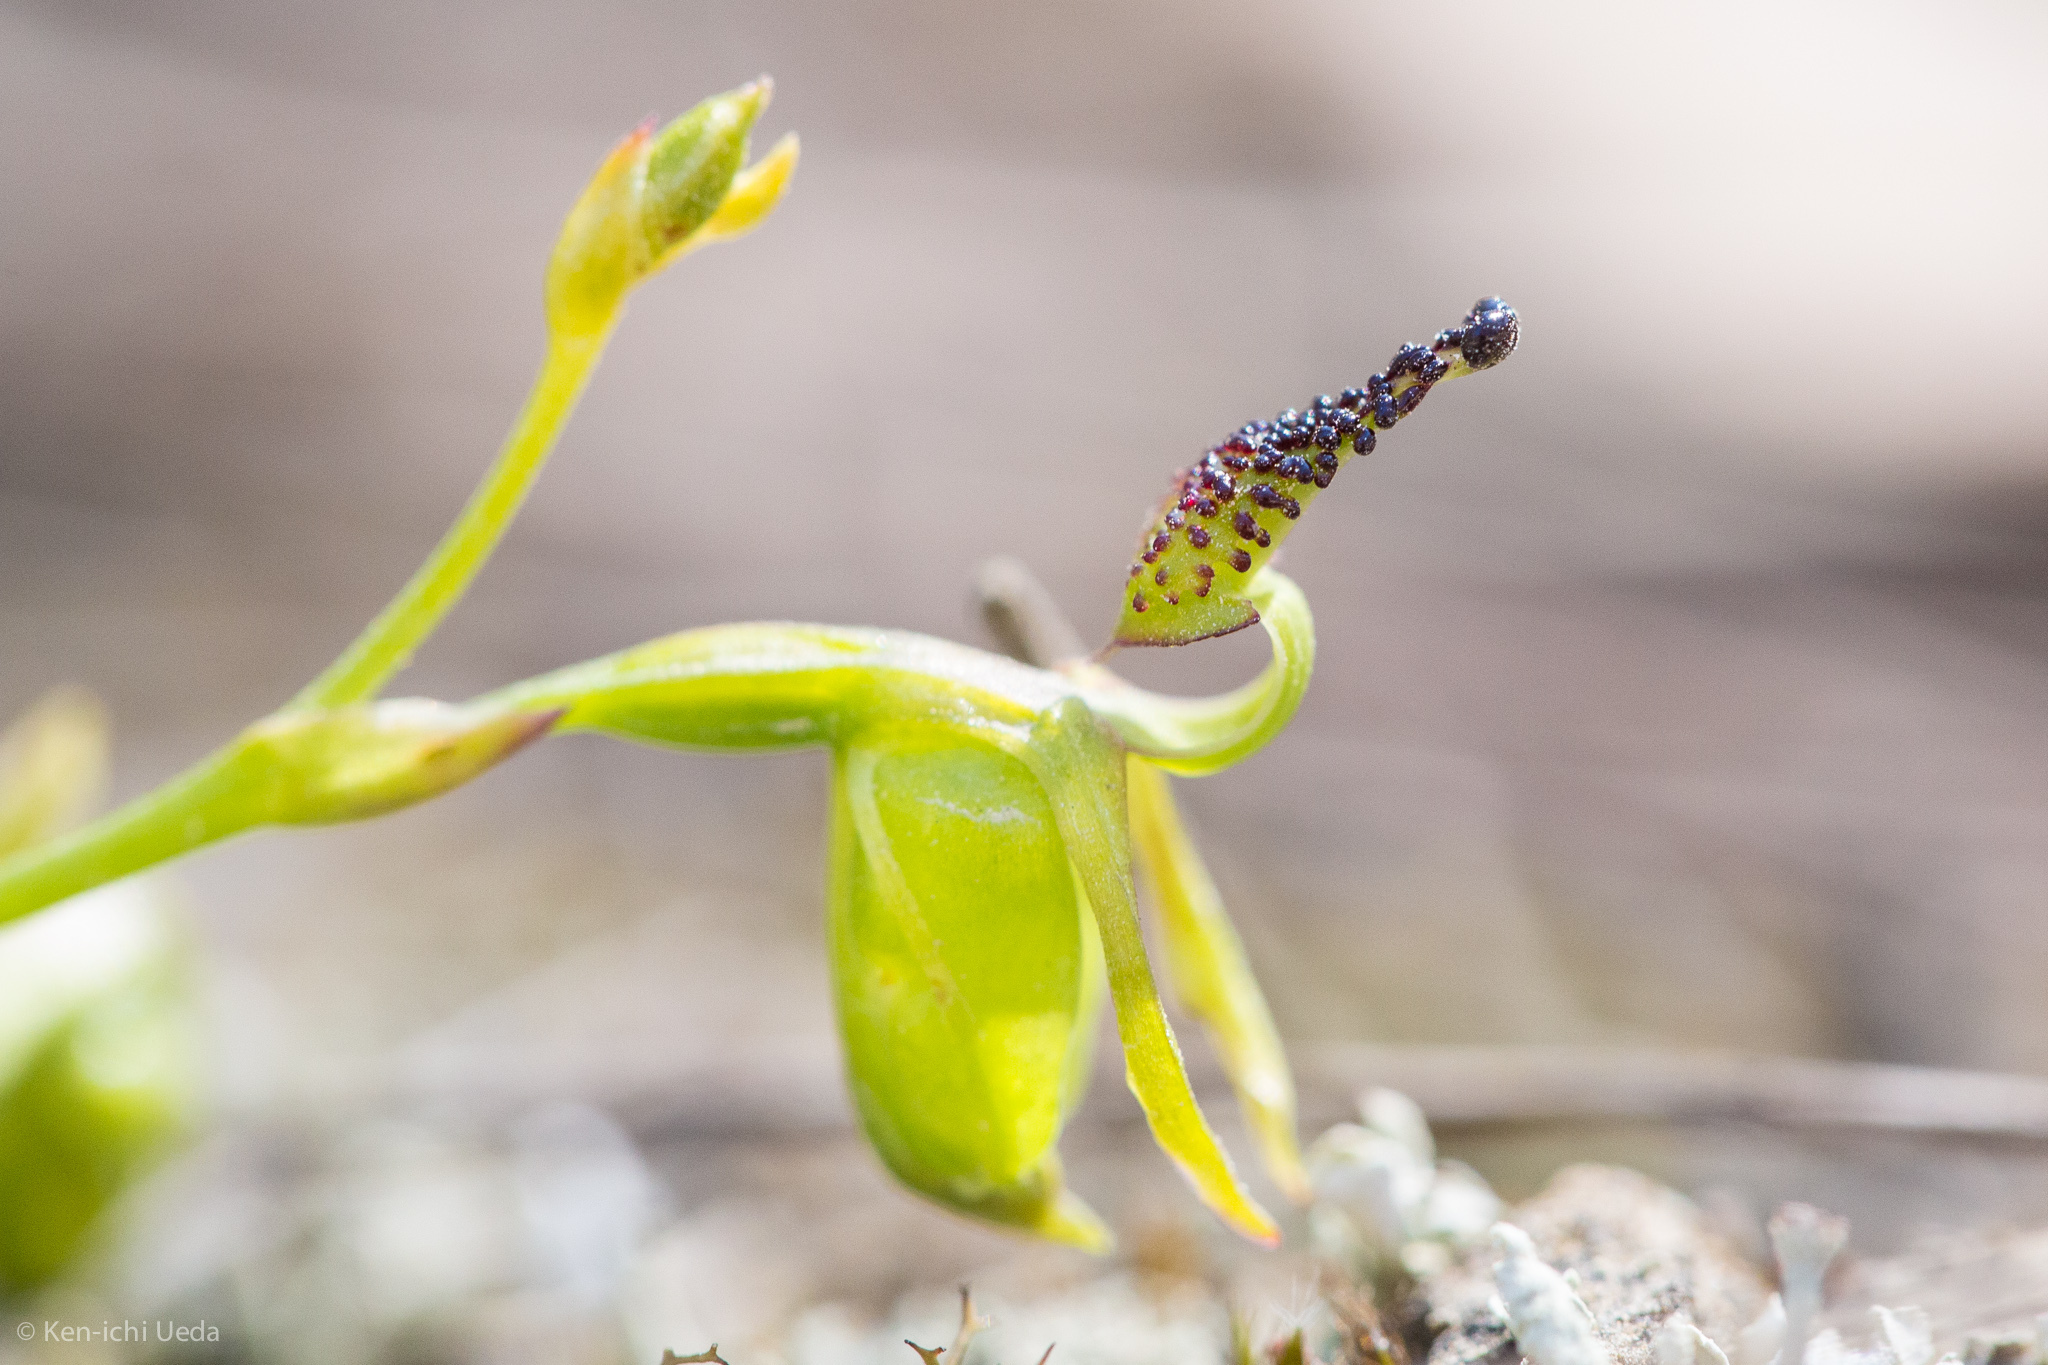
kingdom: Plantae
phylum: Tracheophyta
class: Liliopsida
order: Asparagales
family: Orchidaceae
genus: Caleana
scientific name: Caleana minor
